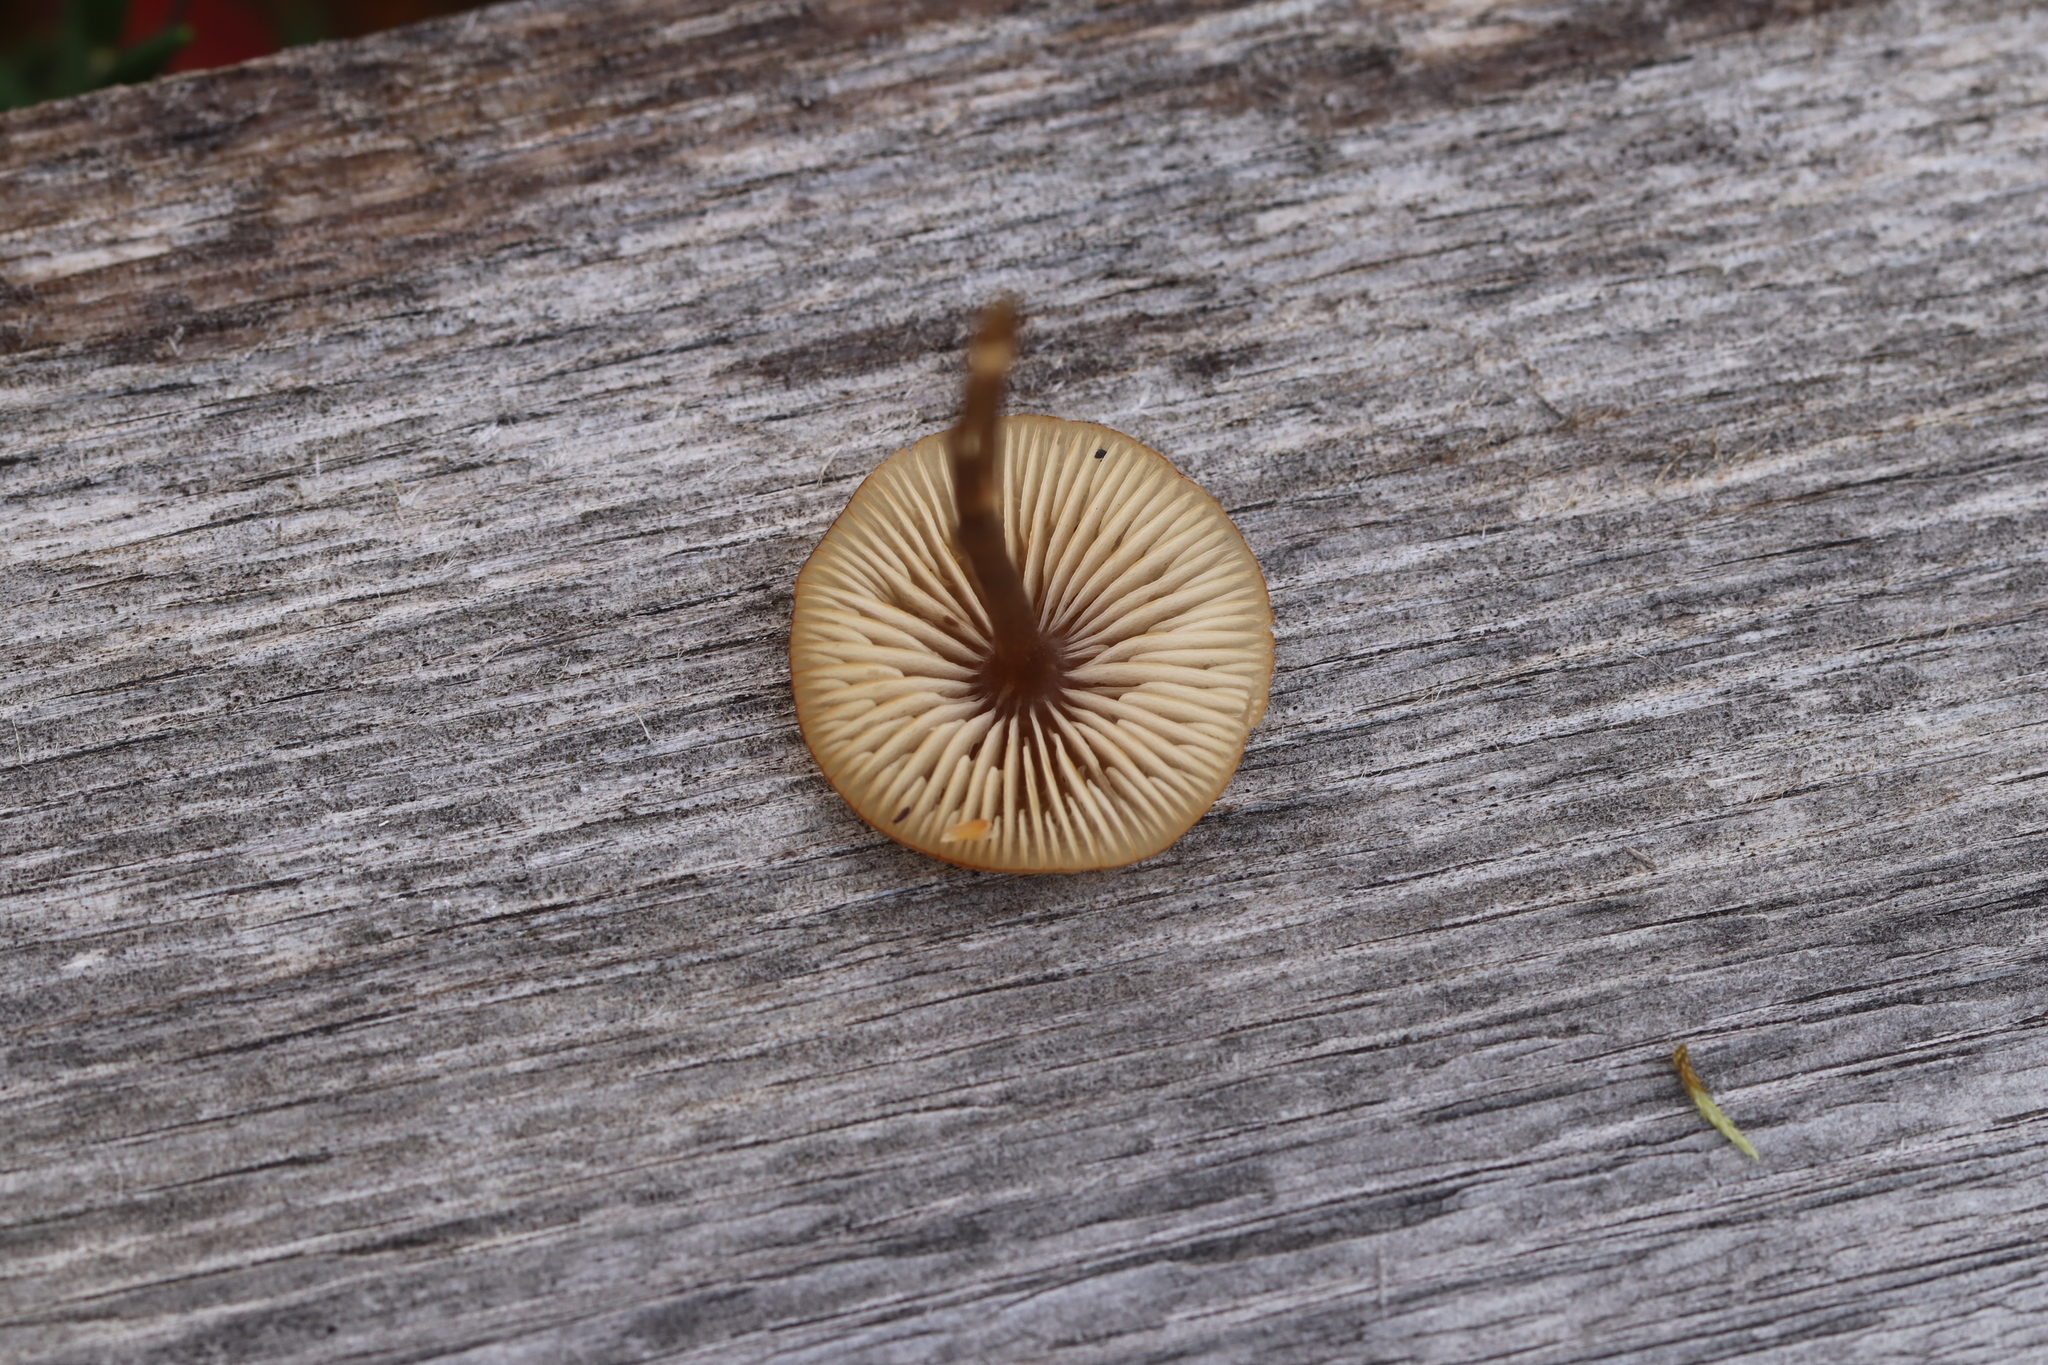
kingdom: Fungi
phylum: Basidiomycota
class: Agaricomycetes
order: Agaricales
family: Lyophyllaceae
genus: Sphagnurus
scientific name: Sphagnurus paluster
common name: Sphagnum greyling
